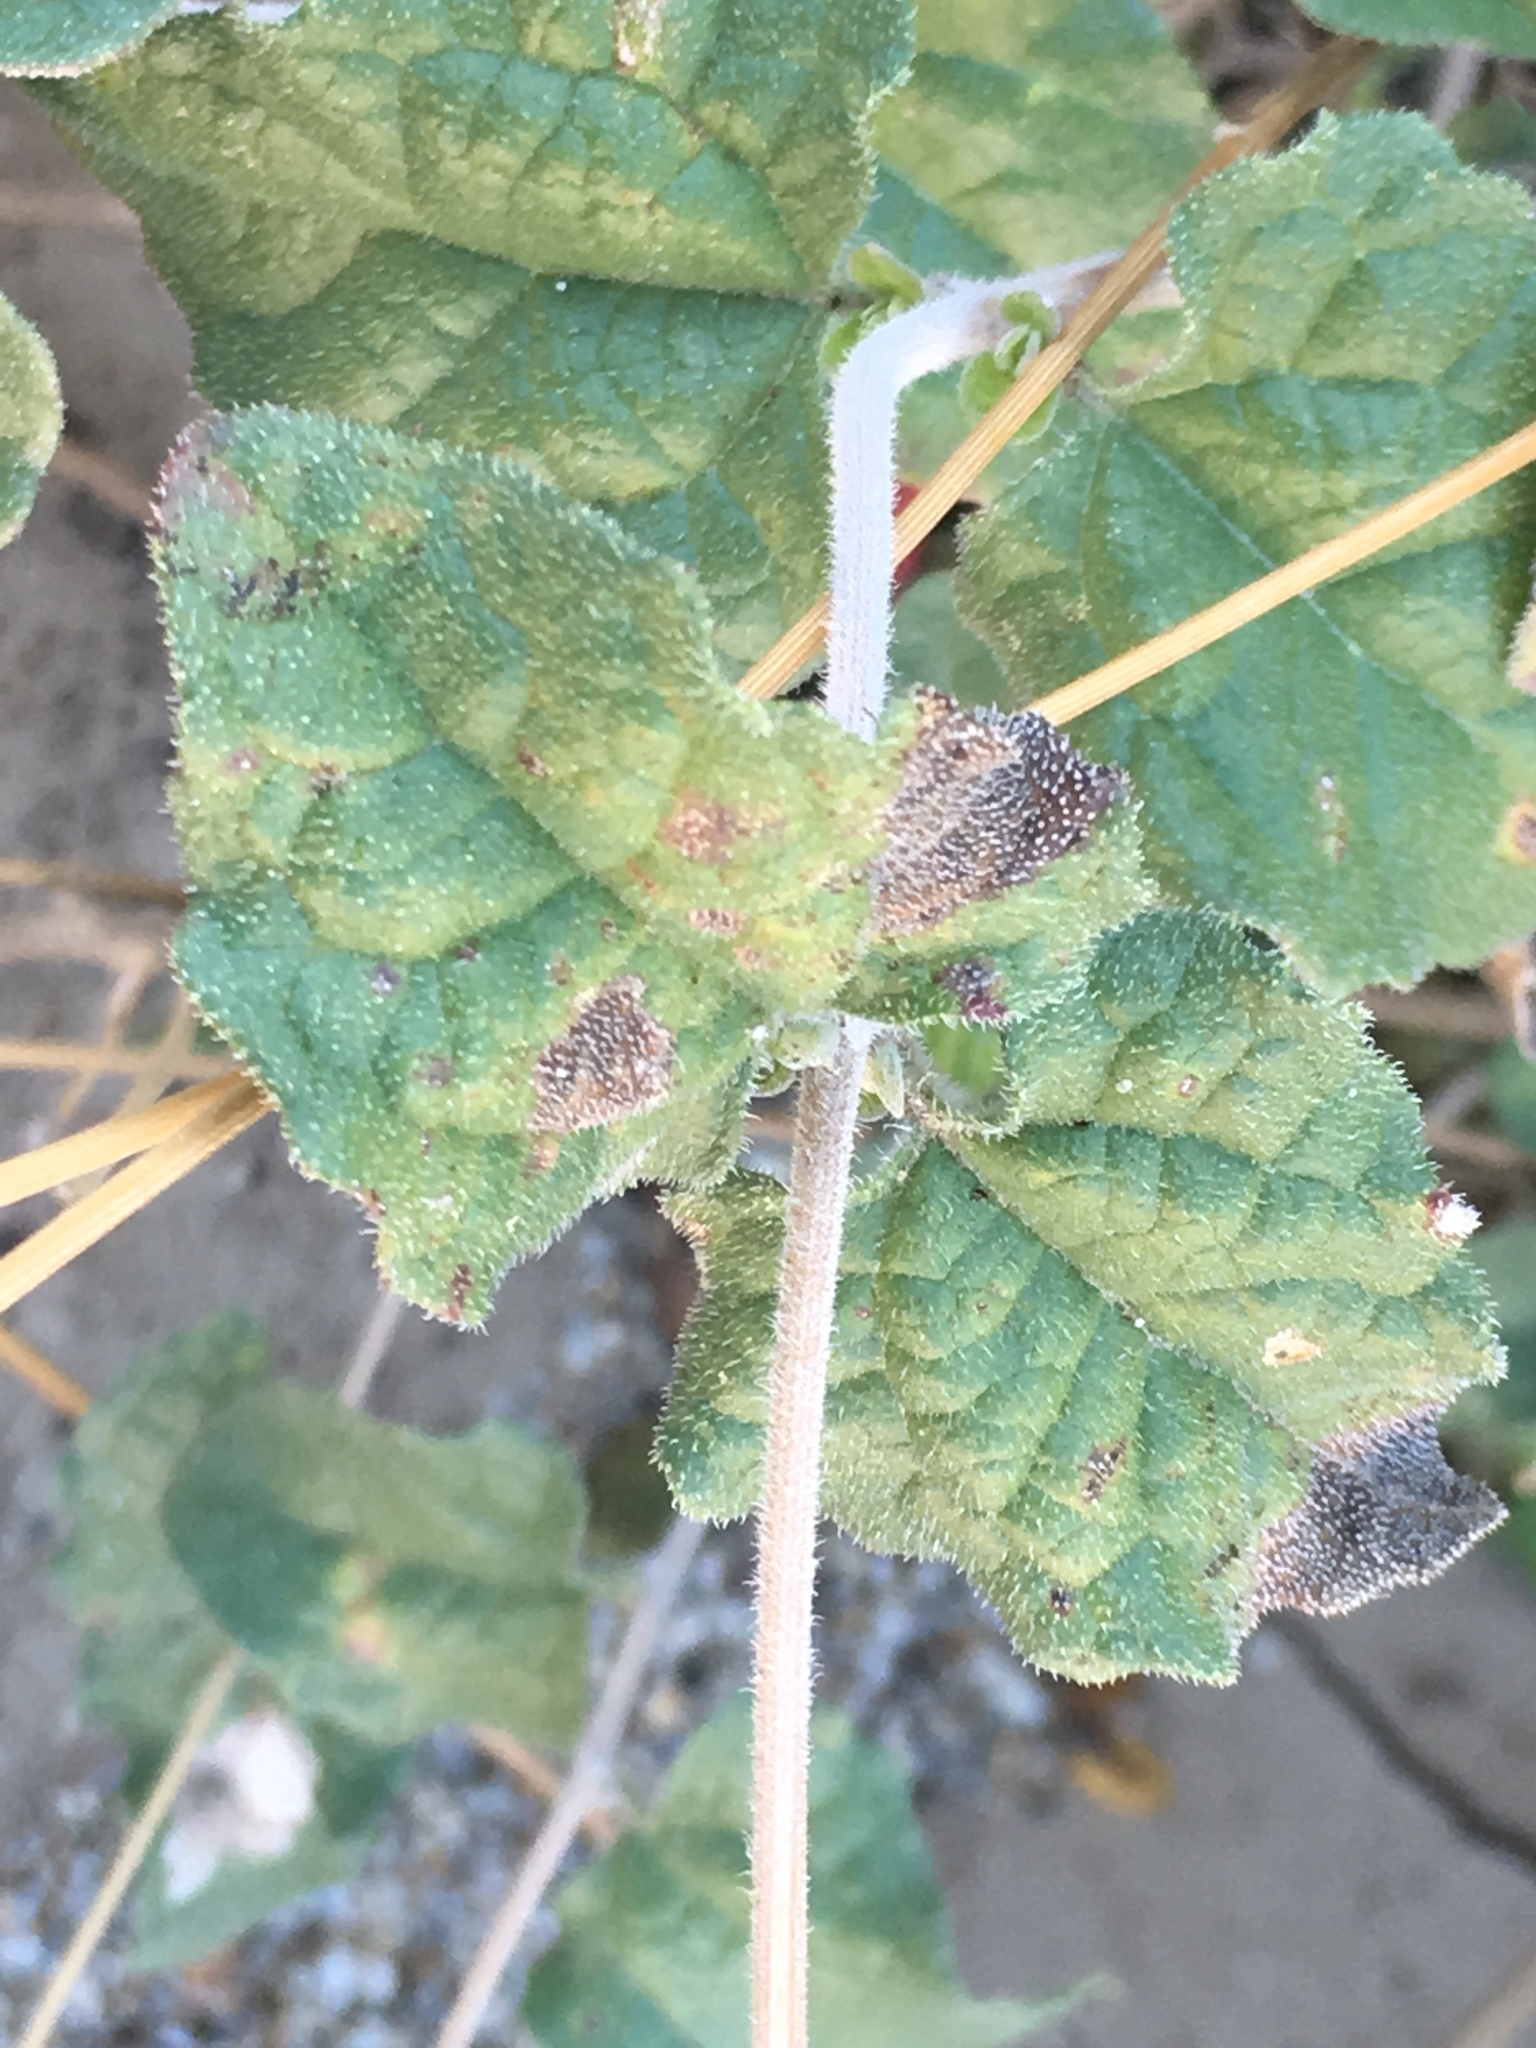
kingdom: Plantae
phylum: Tracheophyta
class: Magnoliopsida
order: Asterales
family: Asteraceae
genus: Bahiopsis
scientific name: Bahiopsis parishii
